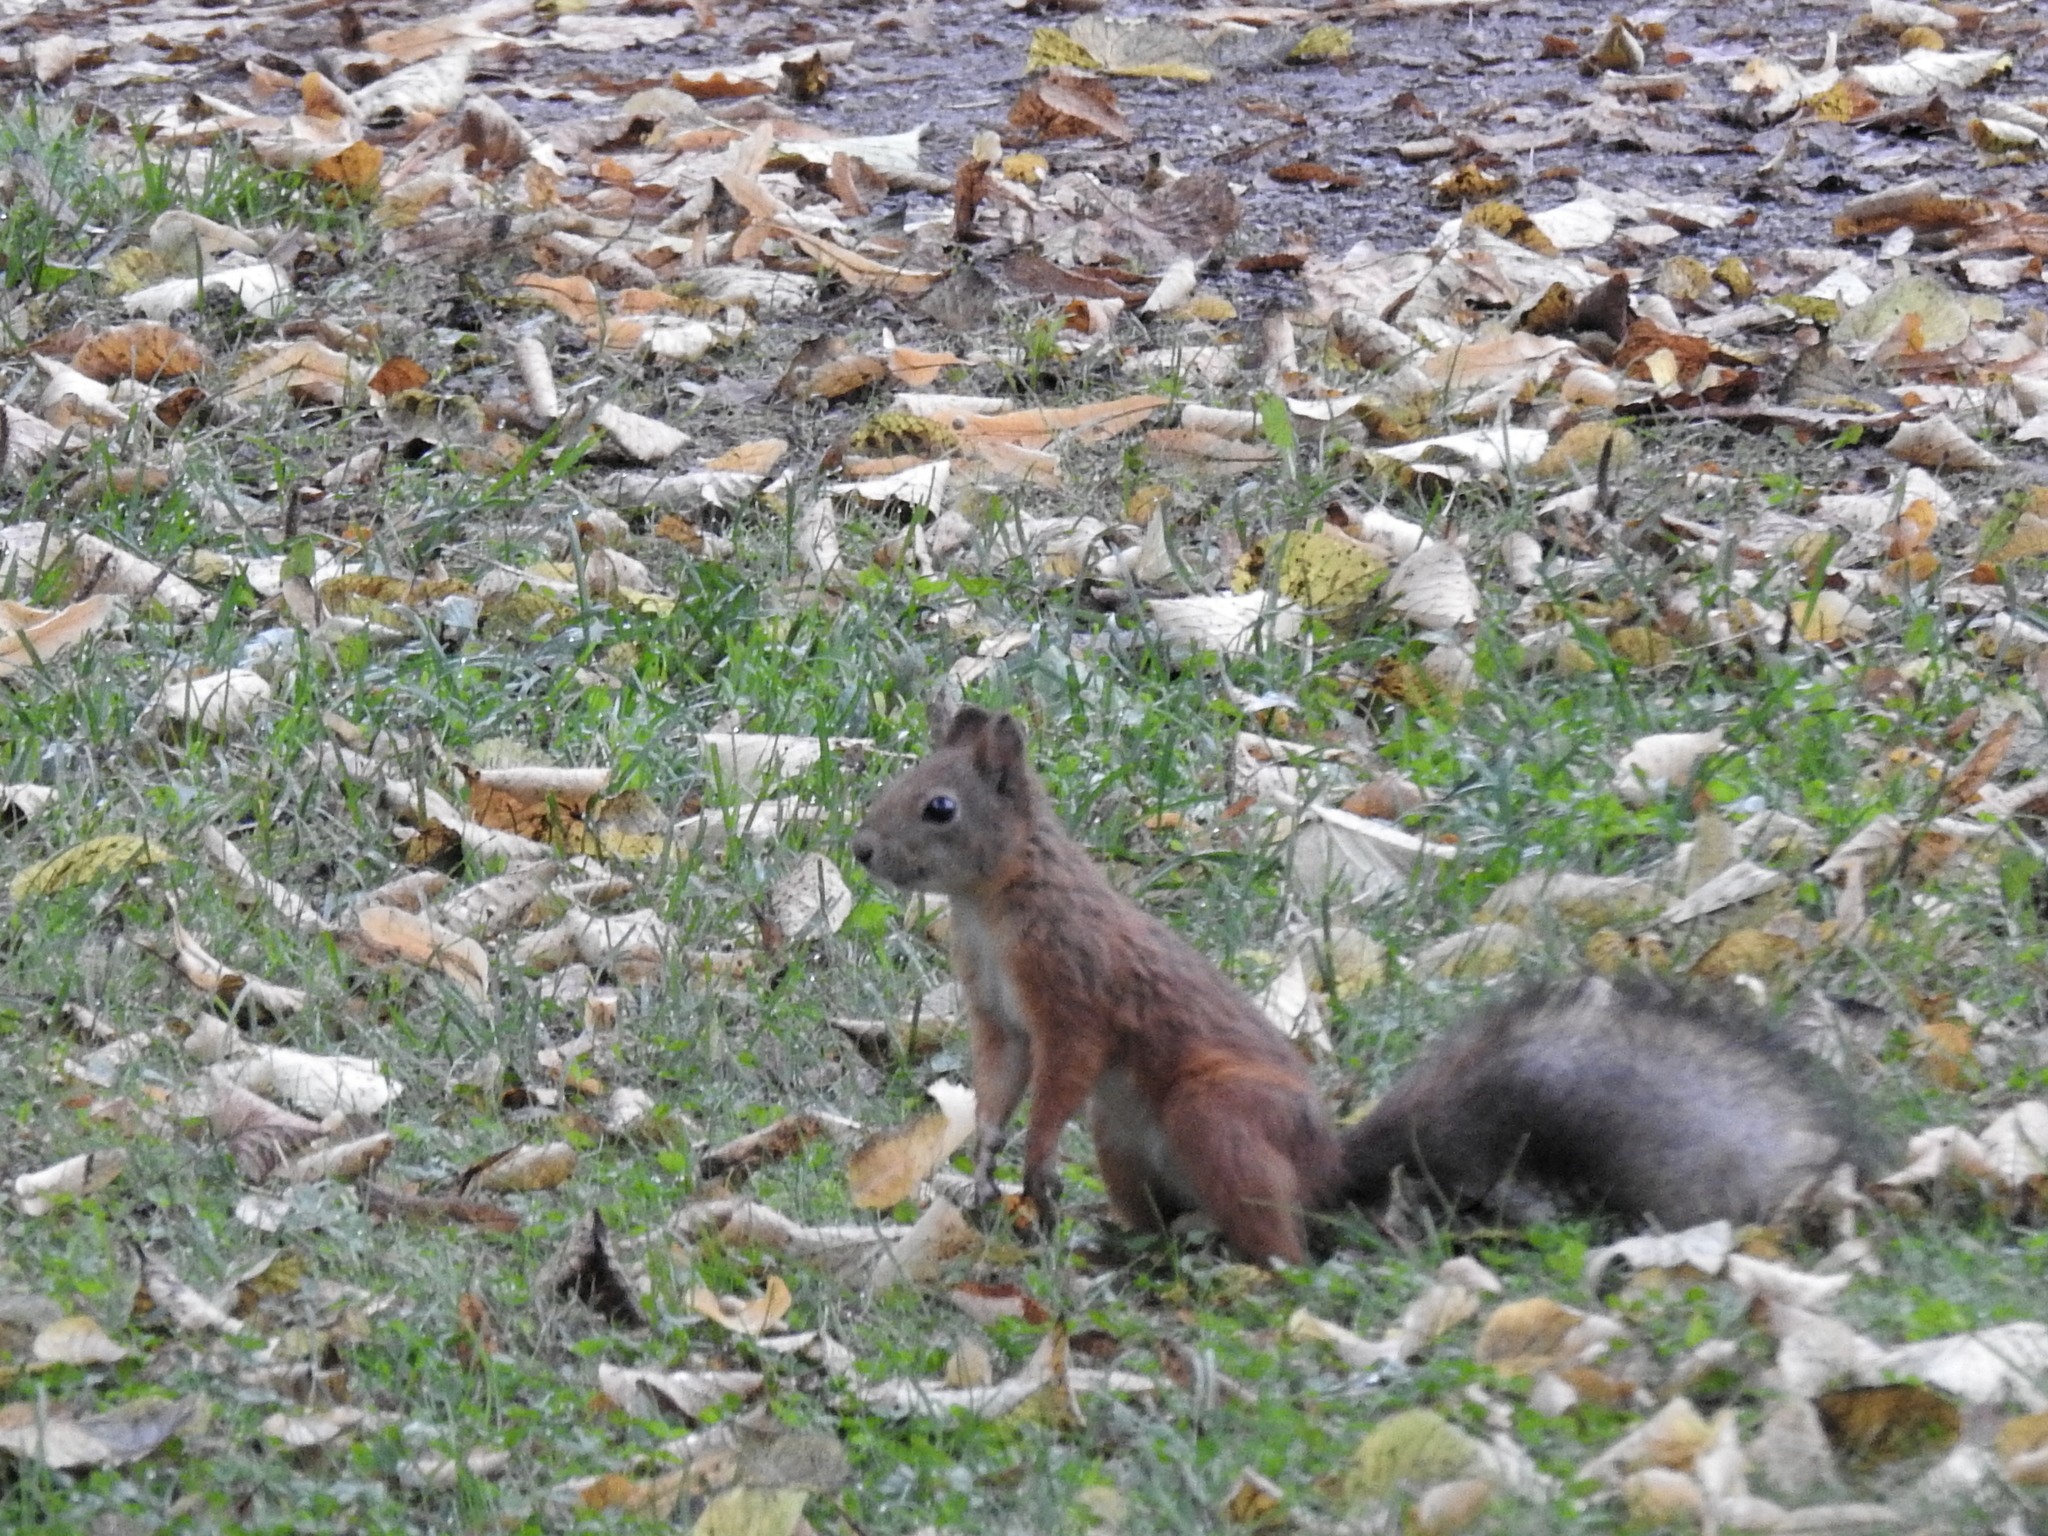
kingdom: Animalia
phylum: Chordata
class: Mammalia
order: Rodentia
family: Sciuridae
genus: Sciurus
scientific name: Sciurus vulgaris
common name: Eurasian red squirrel
